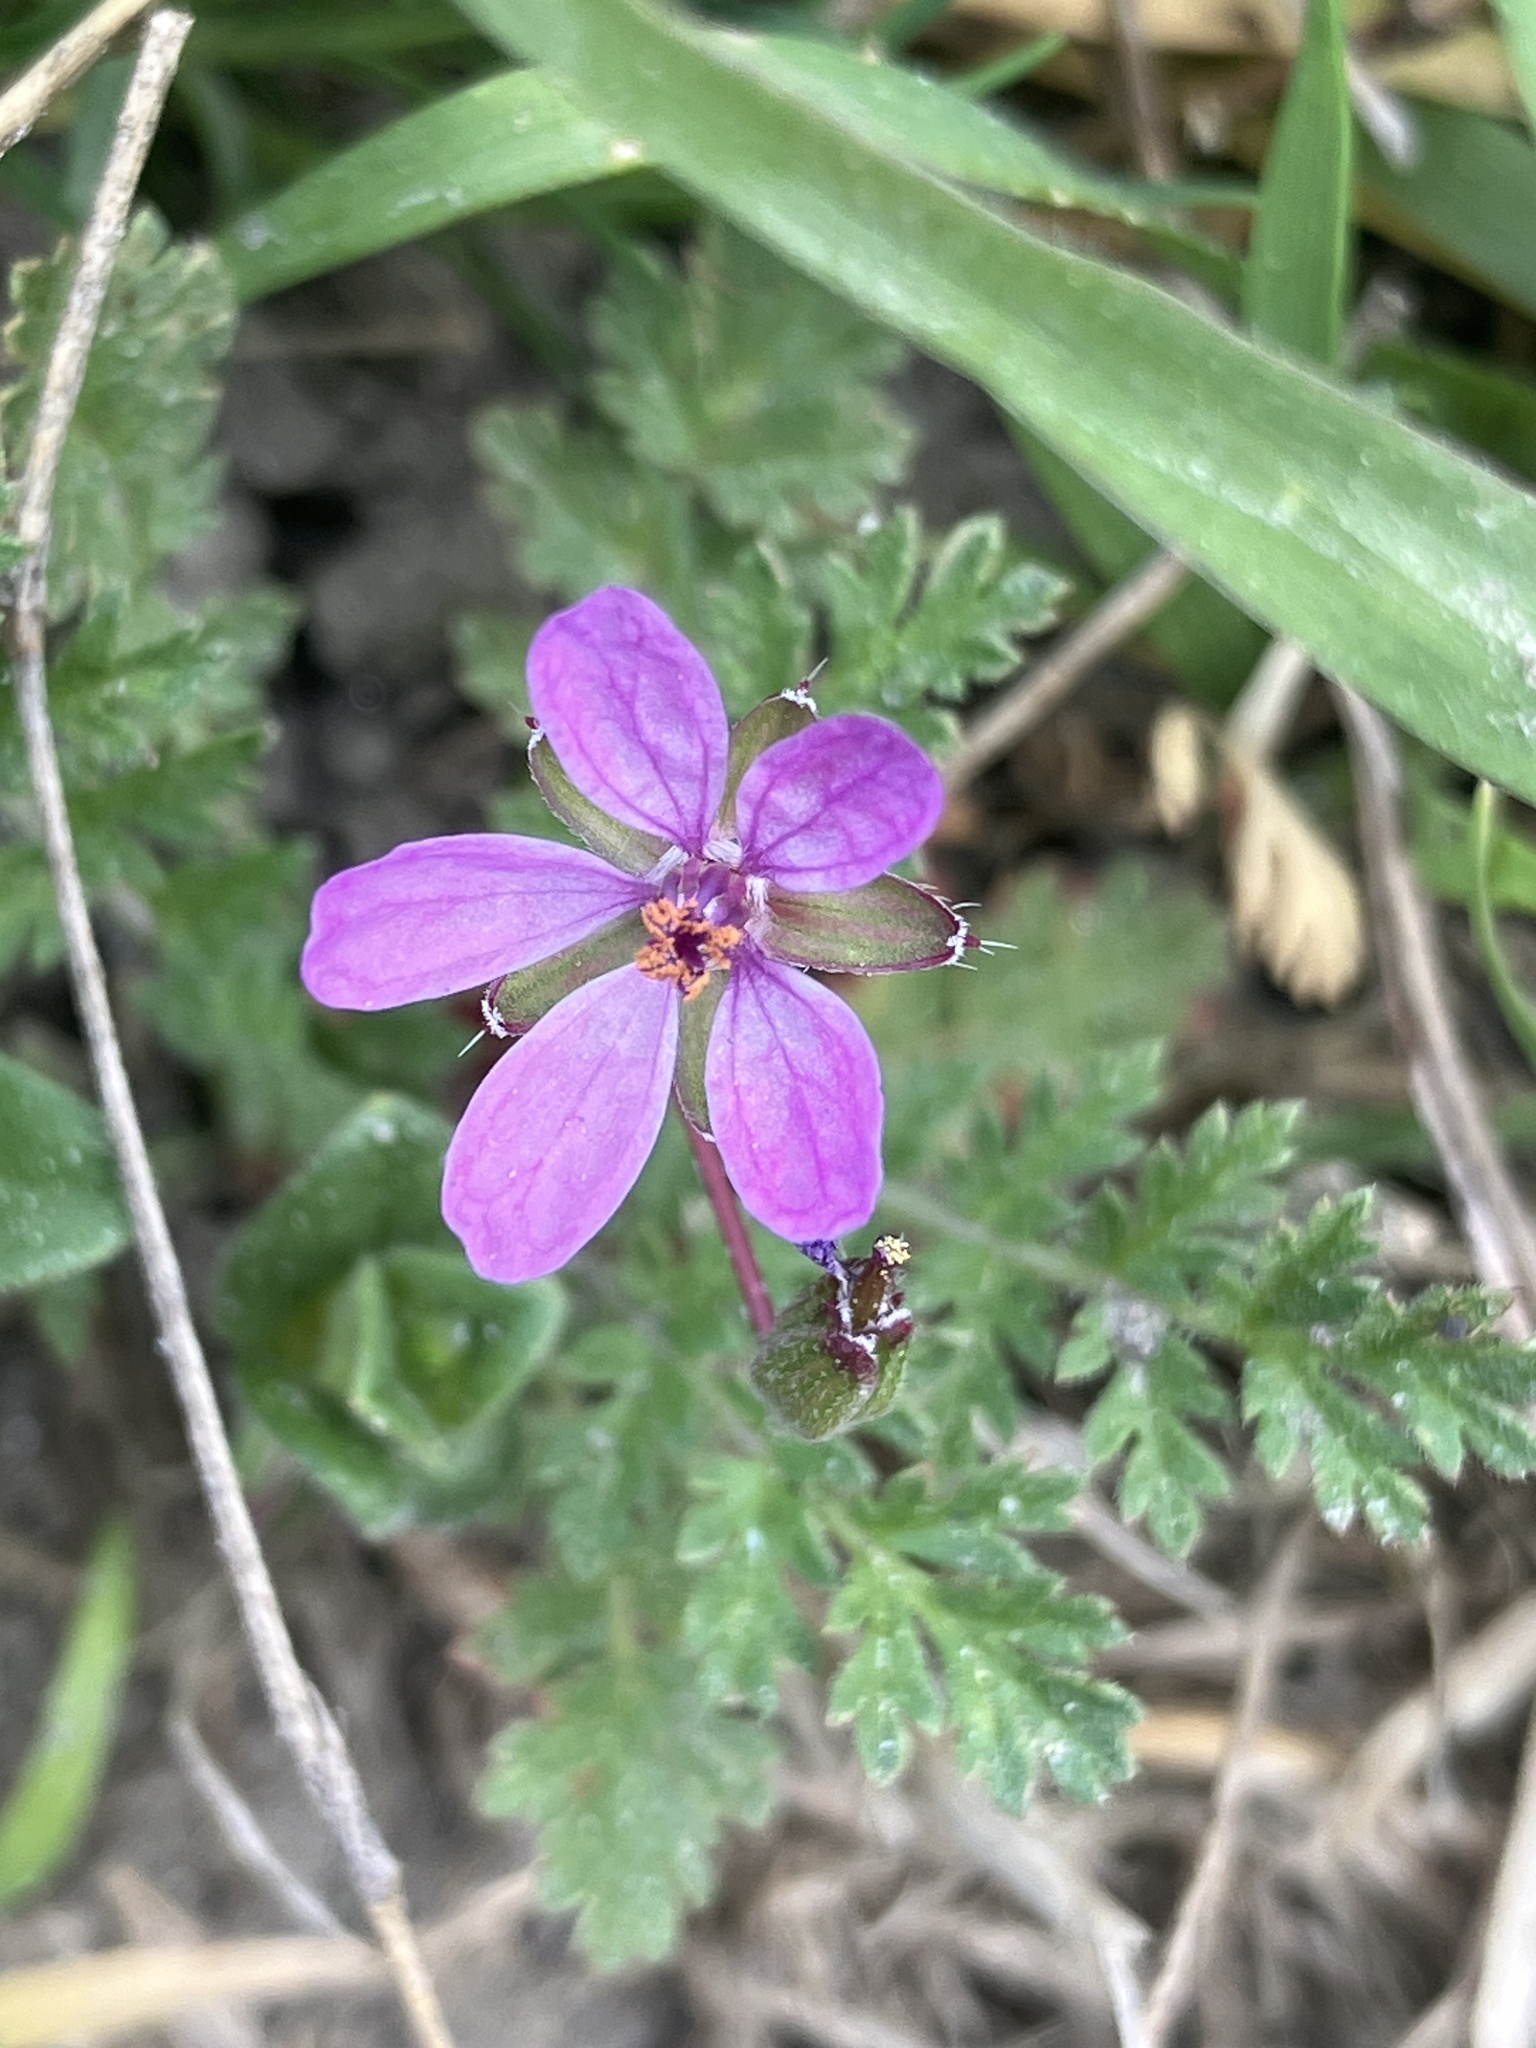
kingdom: Plantae
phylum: Tracheophyta
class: Magnoliopsida
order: Geraniales
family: Geraniaceae
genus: Erodium
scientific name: Erodium cicutarium
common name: Common stork's-bill
